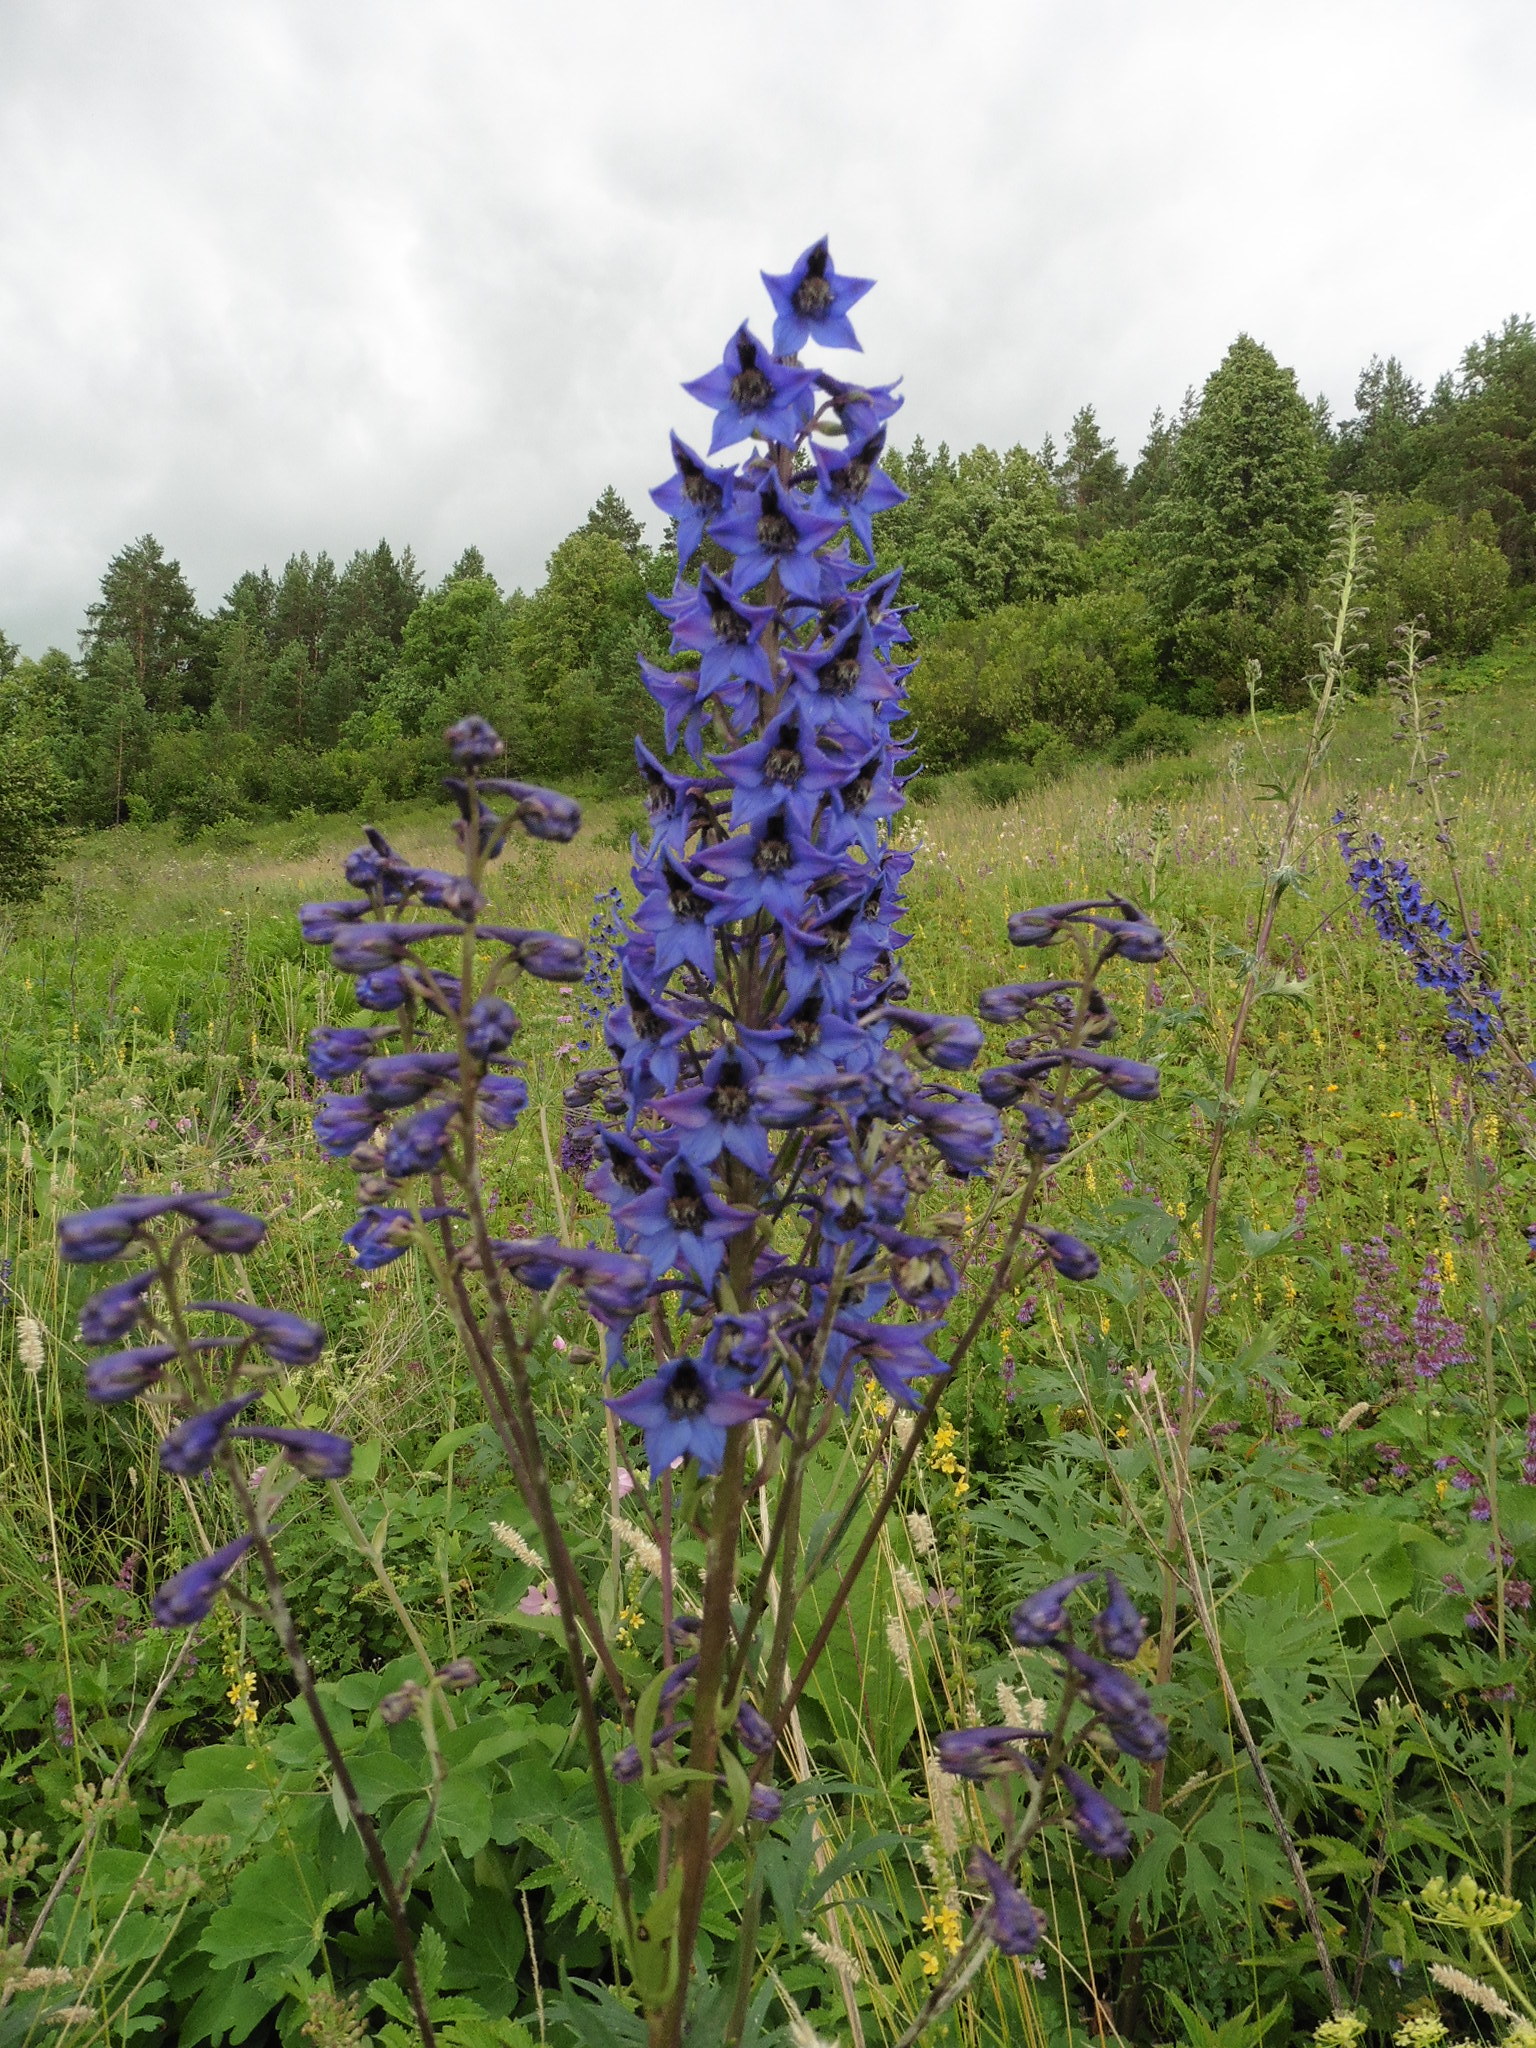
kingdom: Plantae
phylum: Tracheophyta
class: Magnoliopsida
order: Ranunculales
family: Ranunculaceae
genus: Delphinium
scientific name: Delphinium cuneatum
